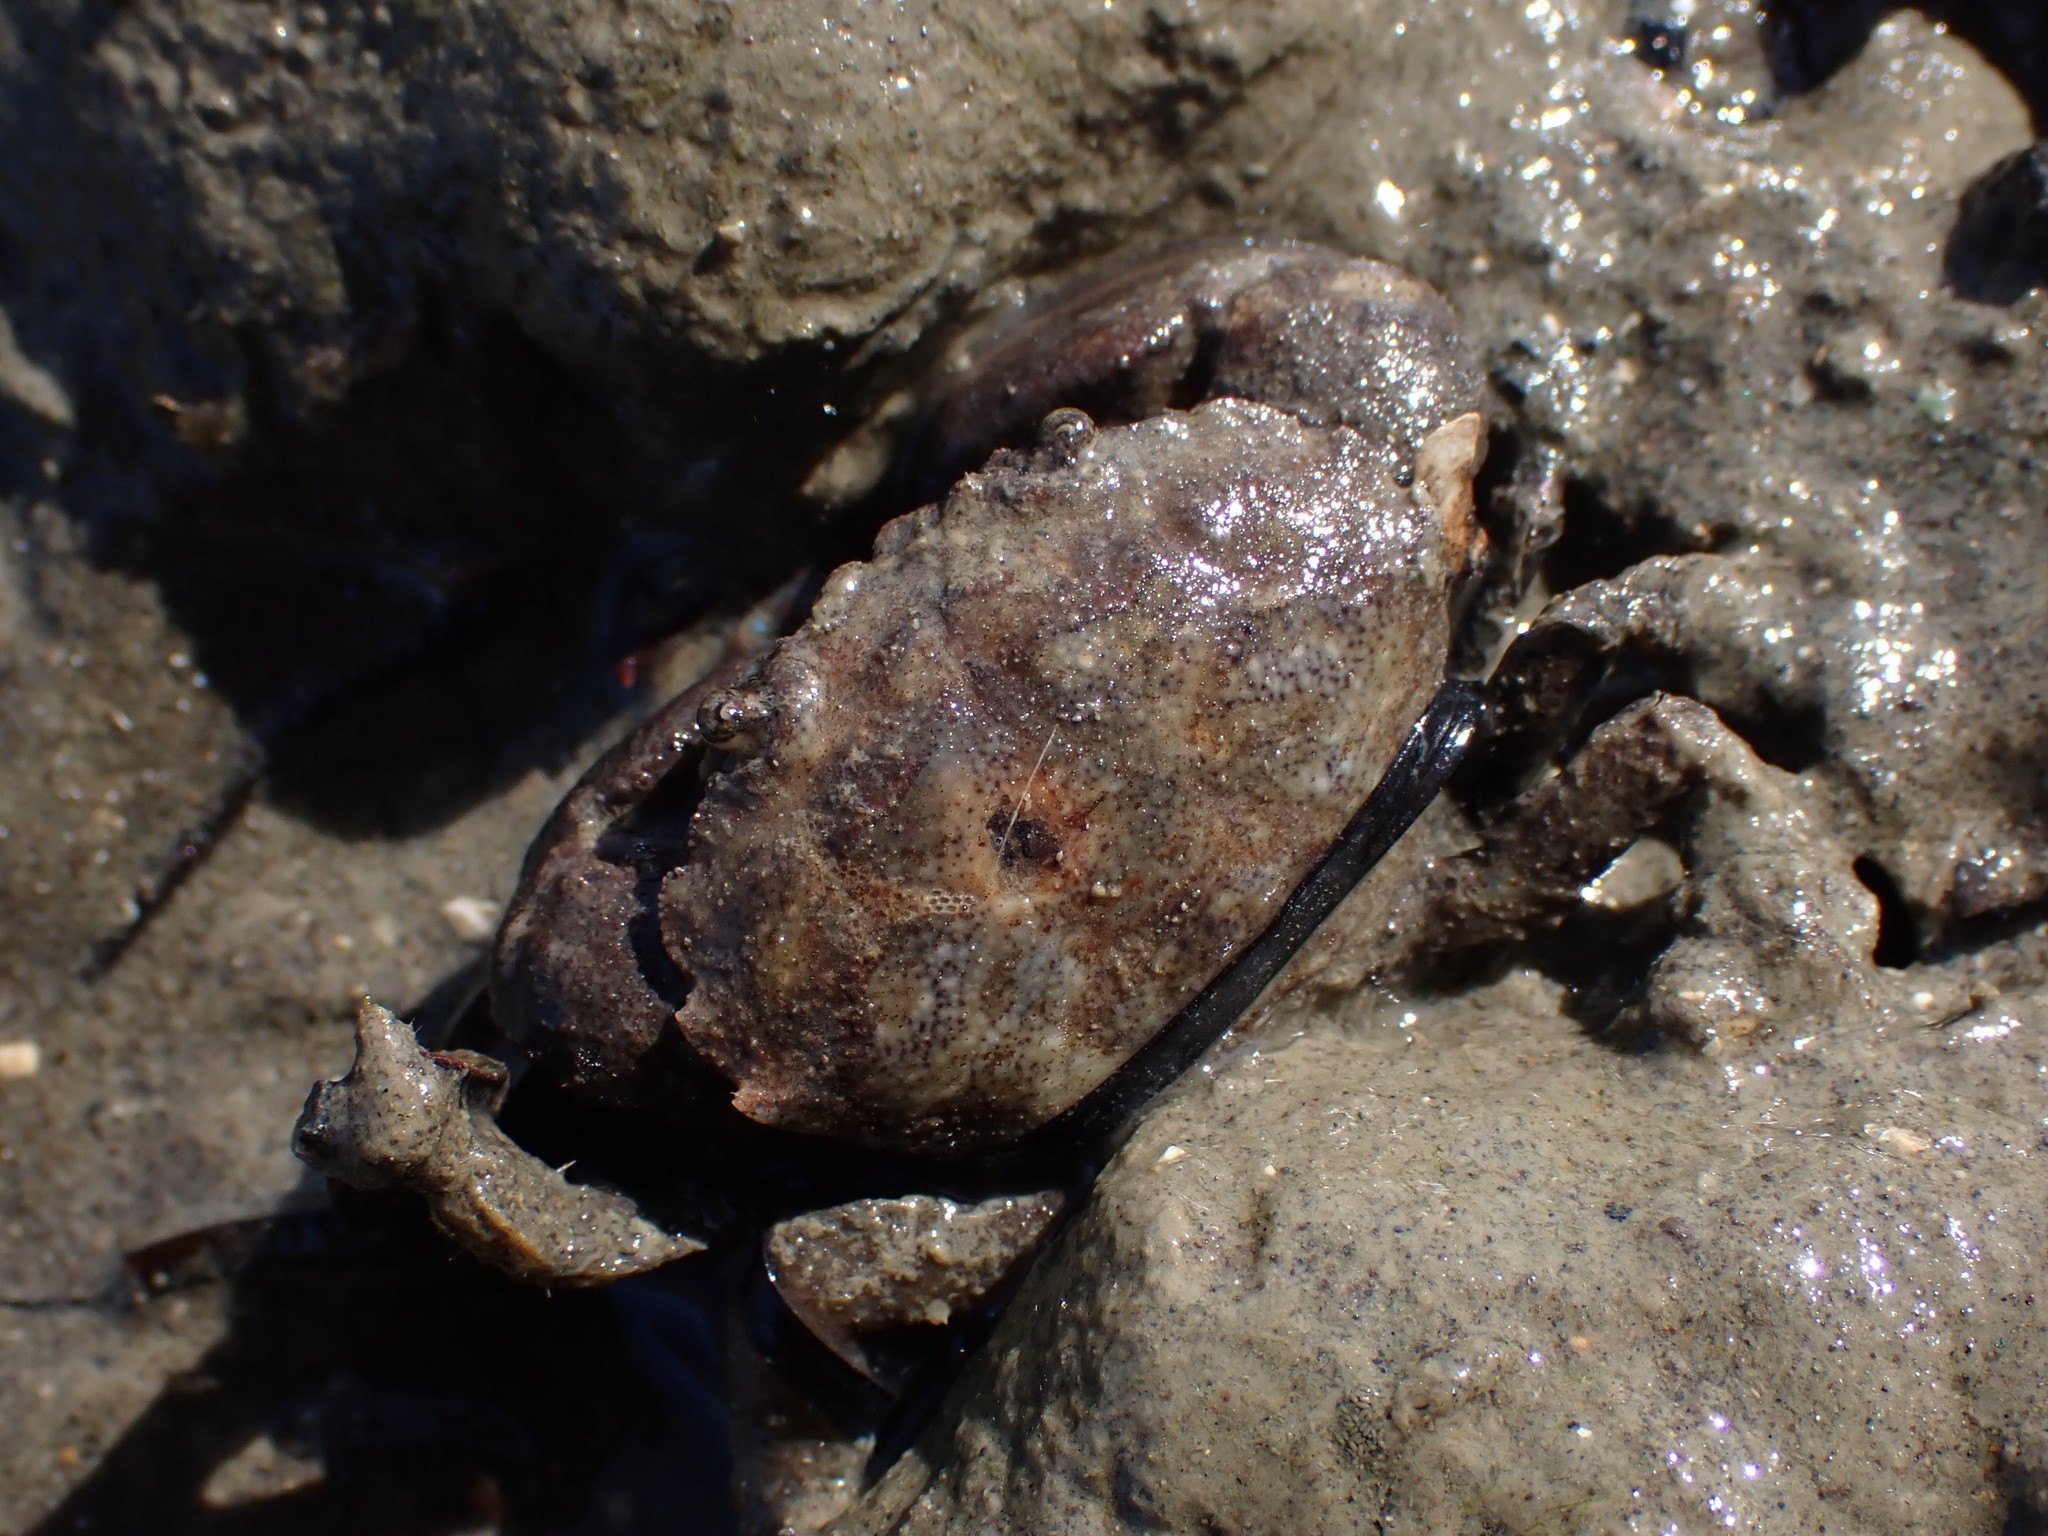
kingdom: Animalia
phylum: Arthropoda
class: Malacostraca
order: Decapoda
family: Pilumnidae
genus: Pilumnopeus
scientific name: Pilumnopeus serratifrons
